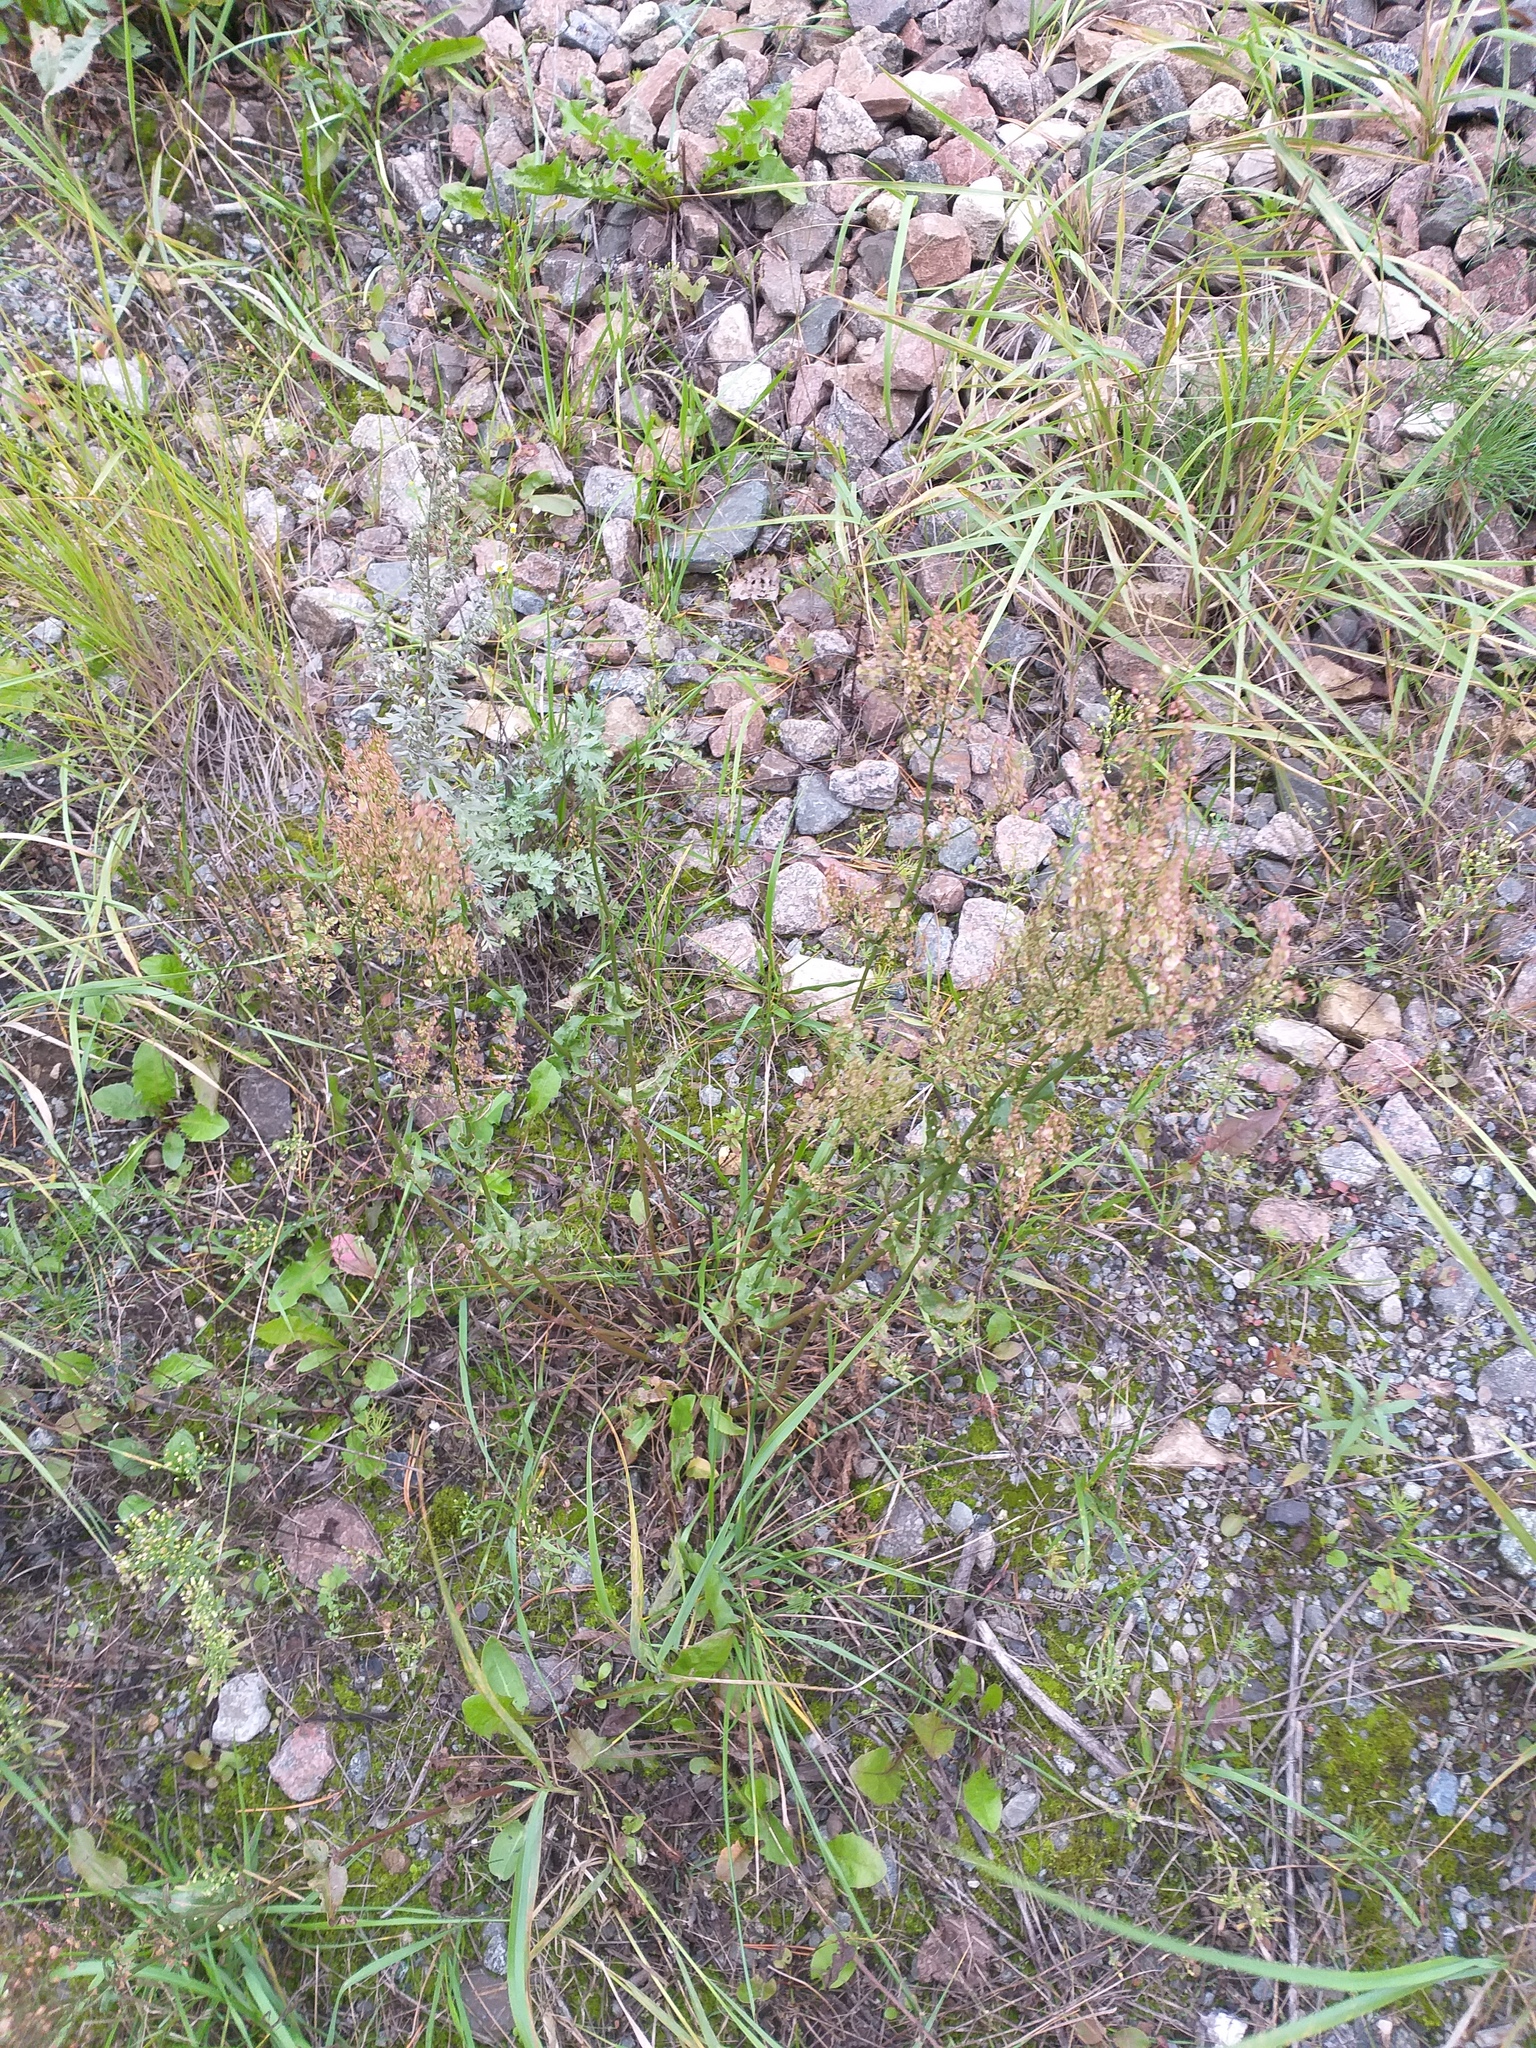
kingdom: Plantae
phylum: Tracheophyta
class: Magnoliopsida
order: Caryophyllales
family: Polygonaceae
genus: Rumex
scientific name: Rumex thyrsiflorus
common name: Garden sorrel
